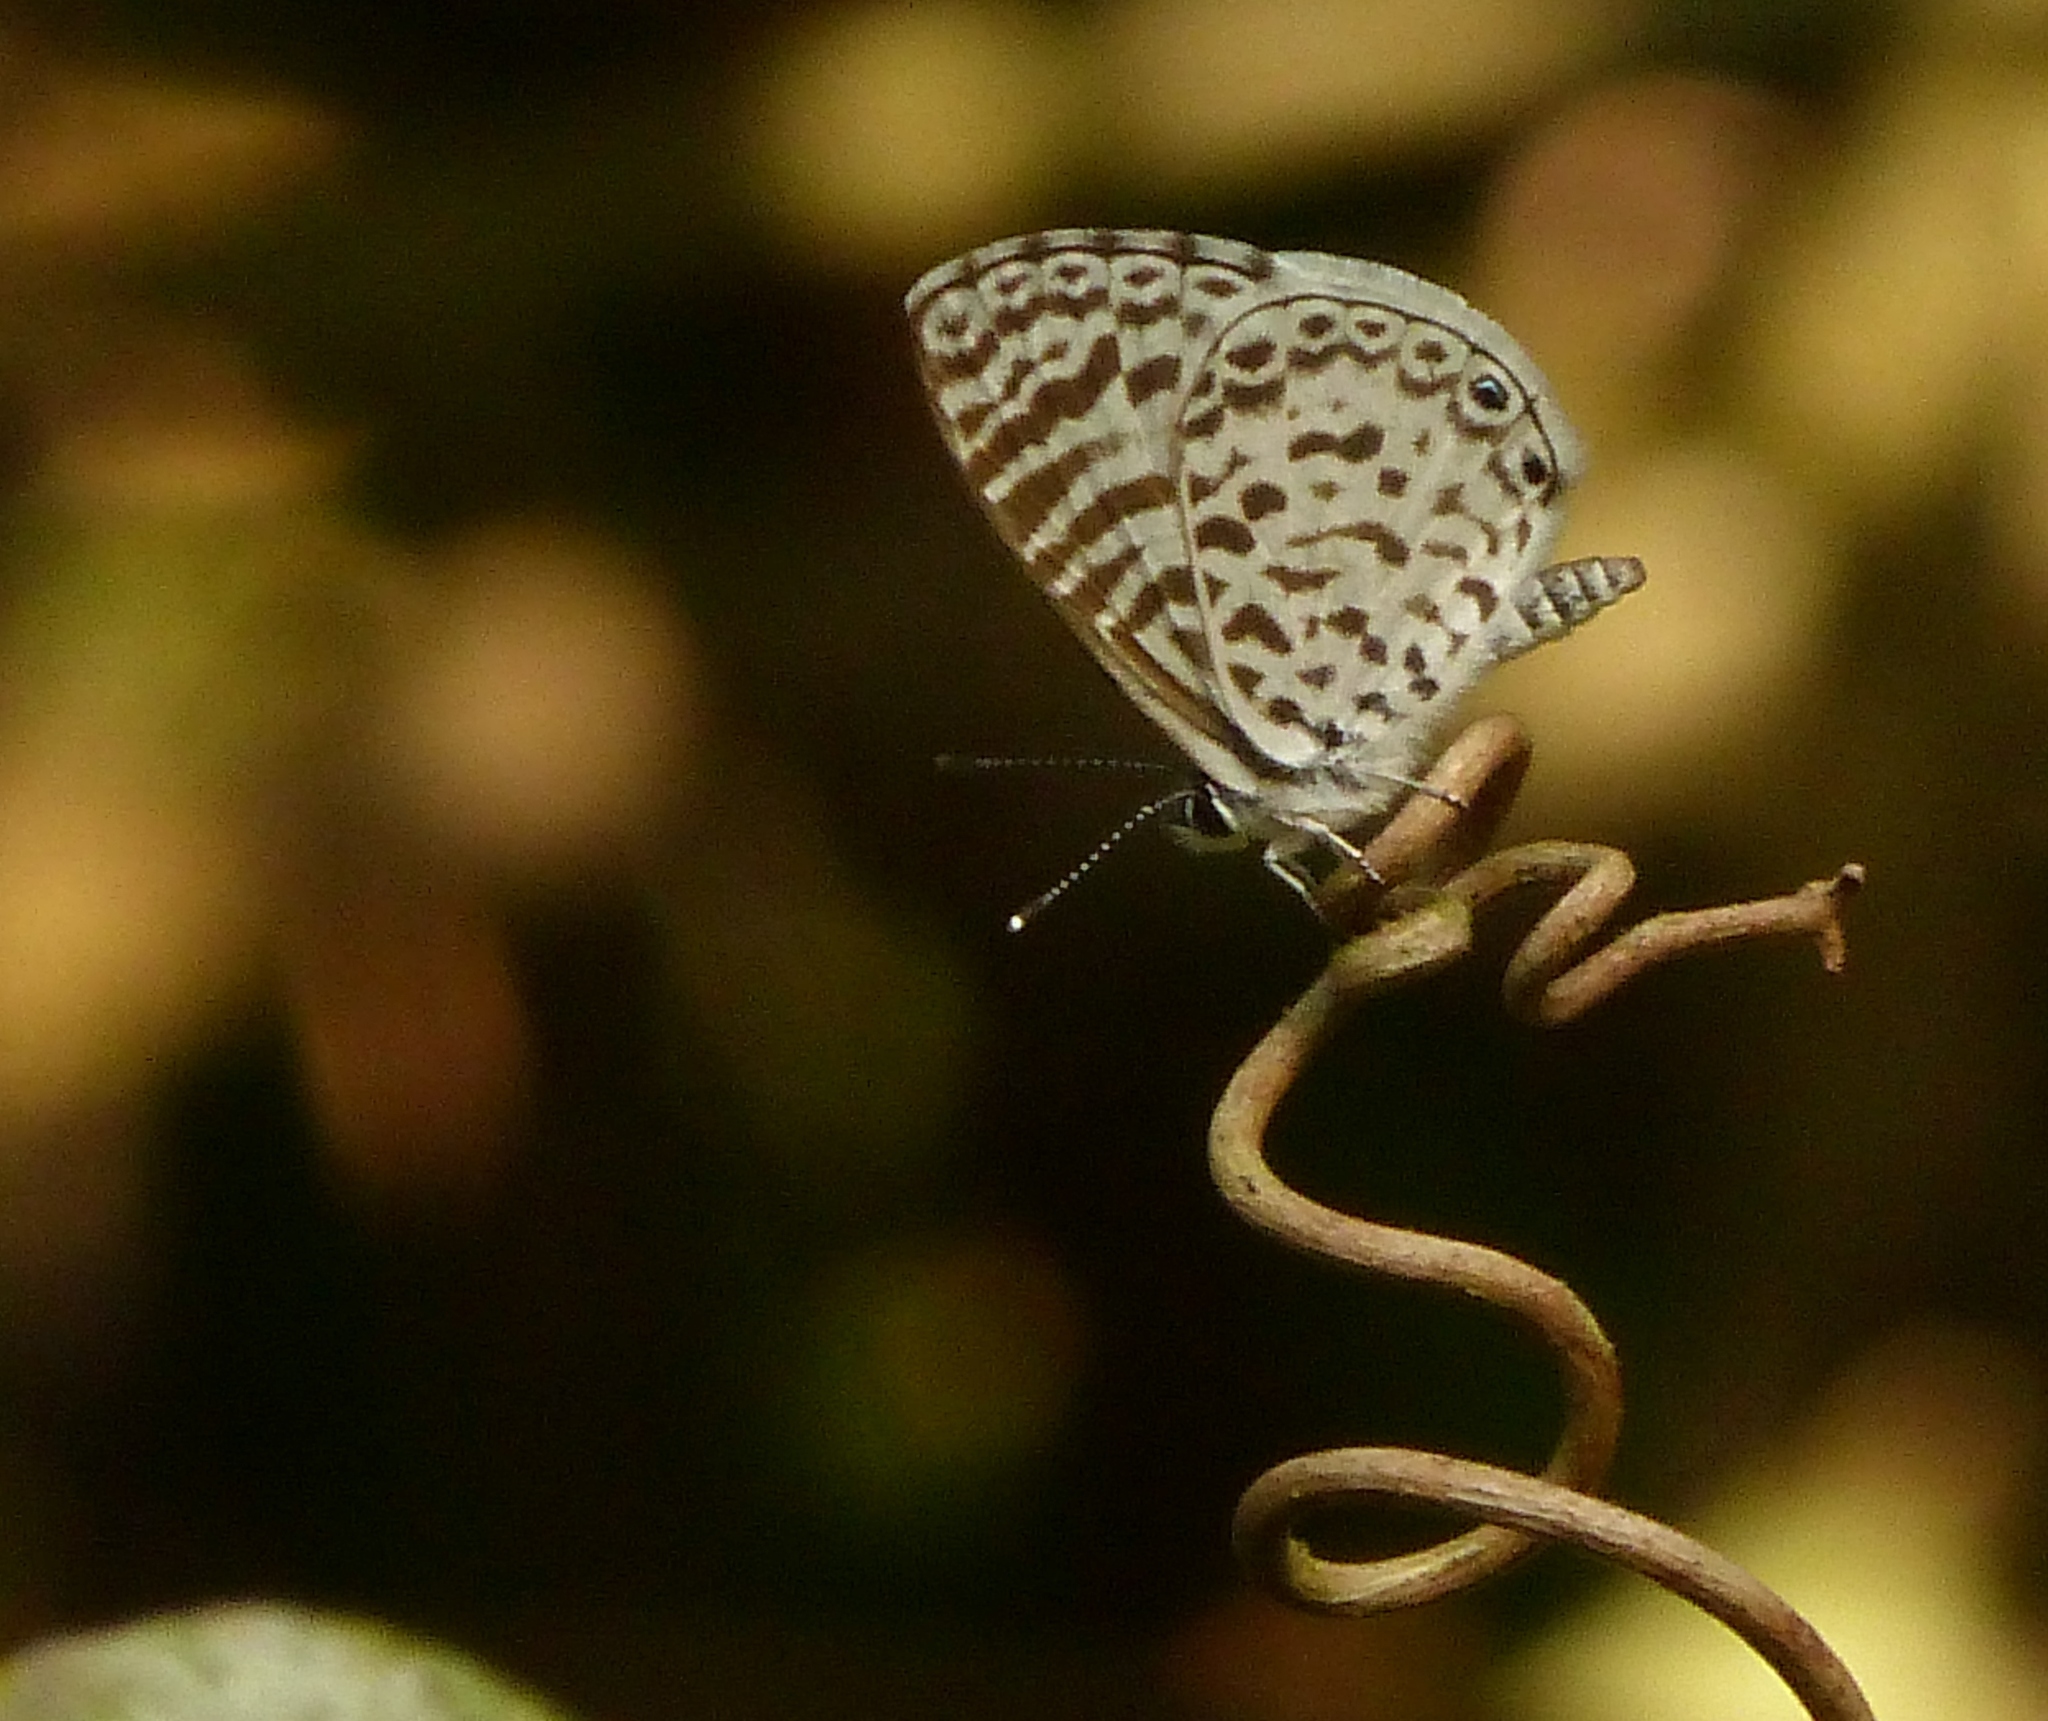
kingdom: Animalia
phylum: Arthropoda
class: Insecta
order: Lepidoptera
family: Lycaenidae
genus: Leptotes
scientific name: Leptotes cassius
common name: Cassius blue
